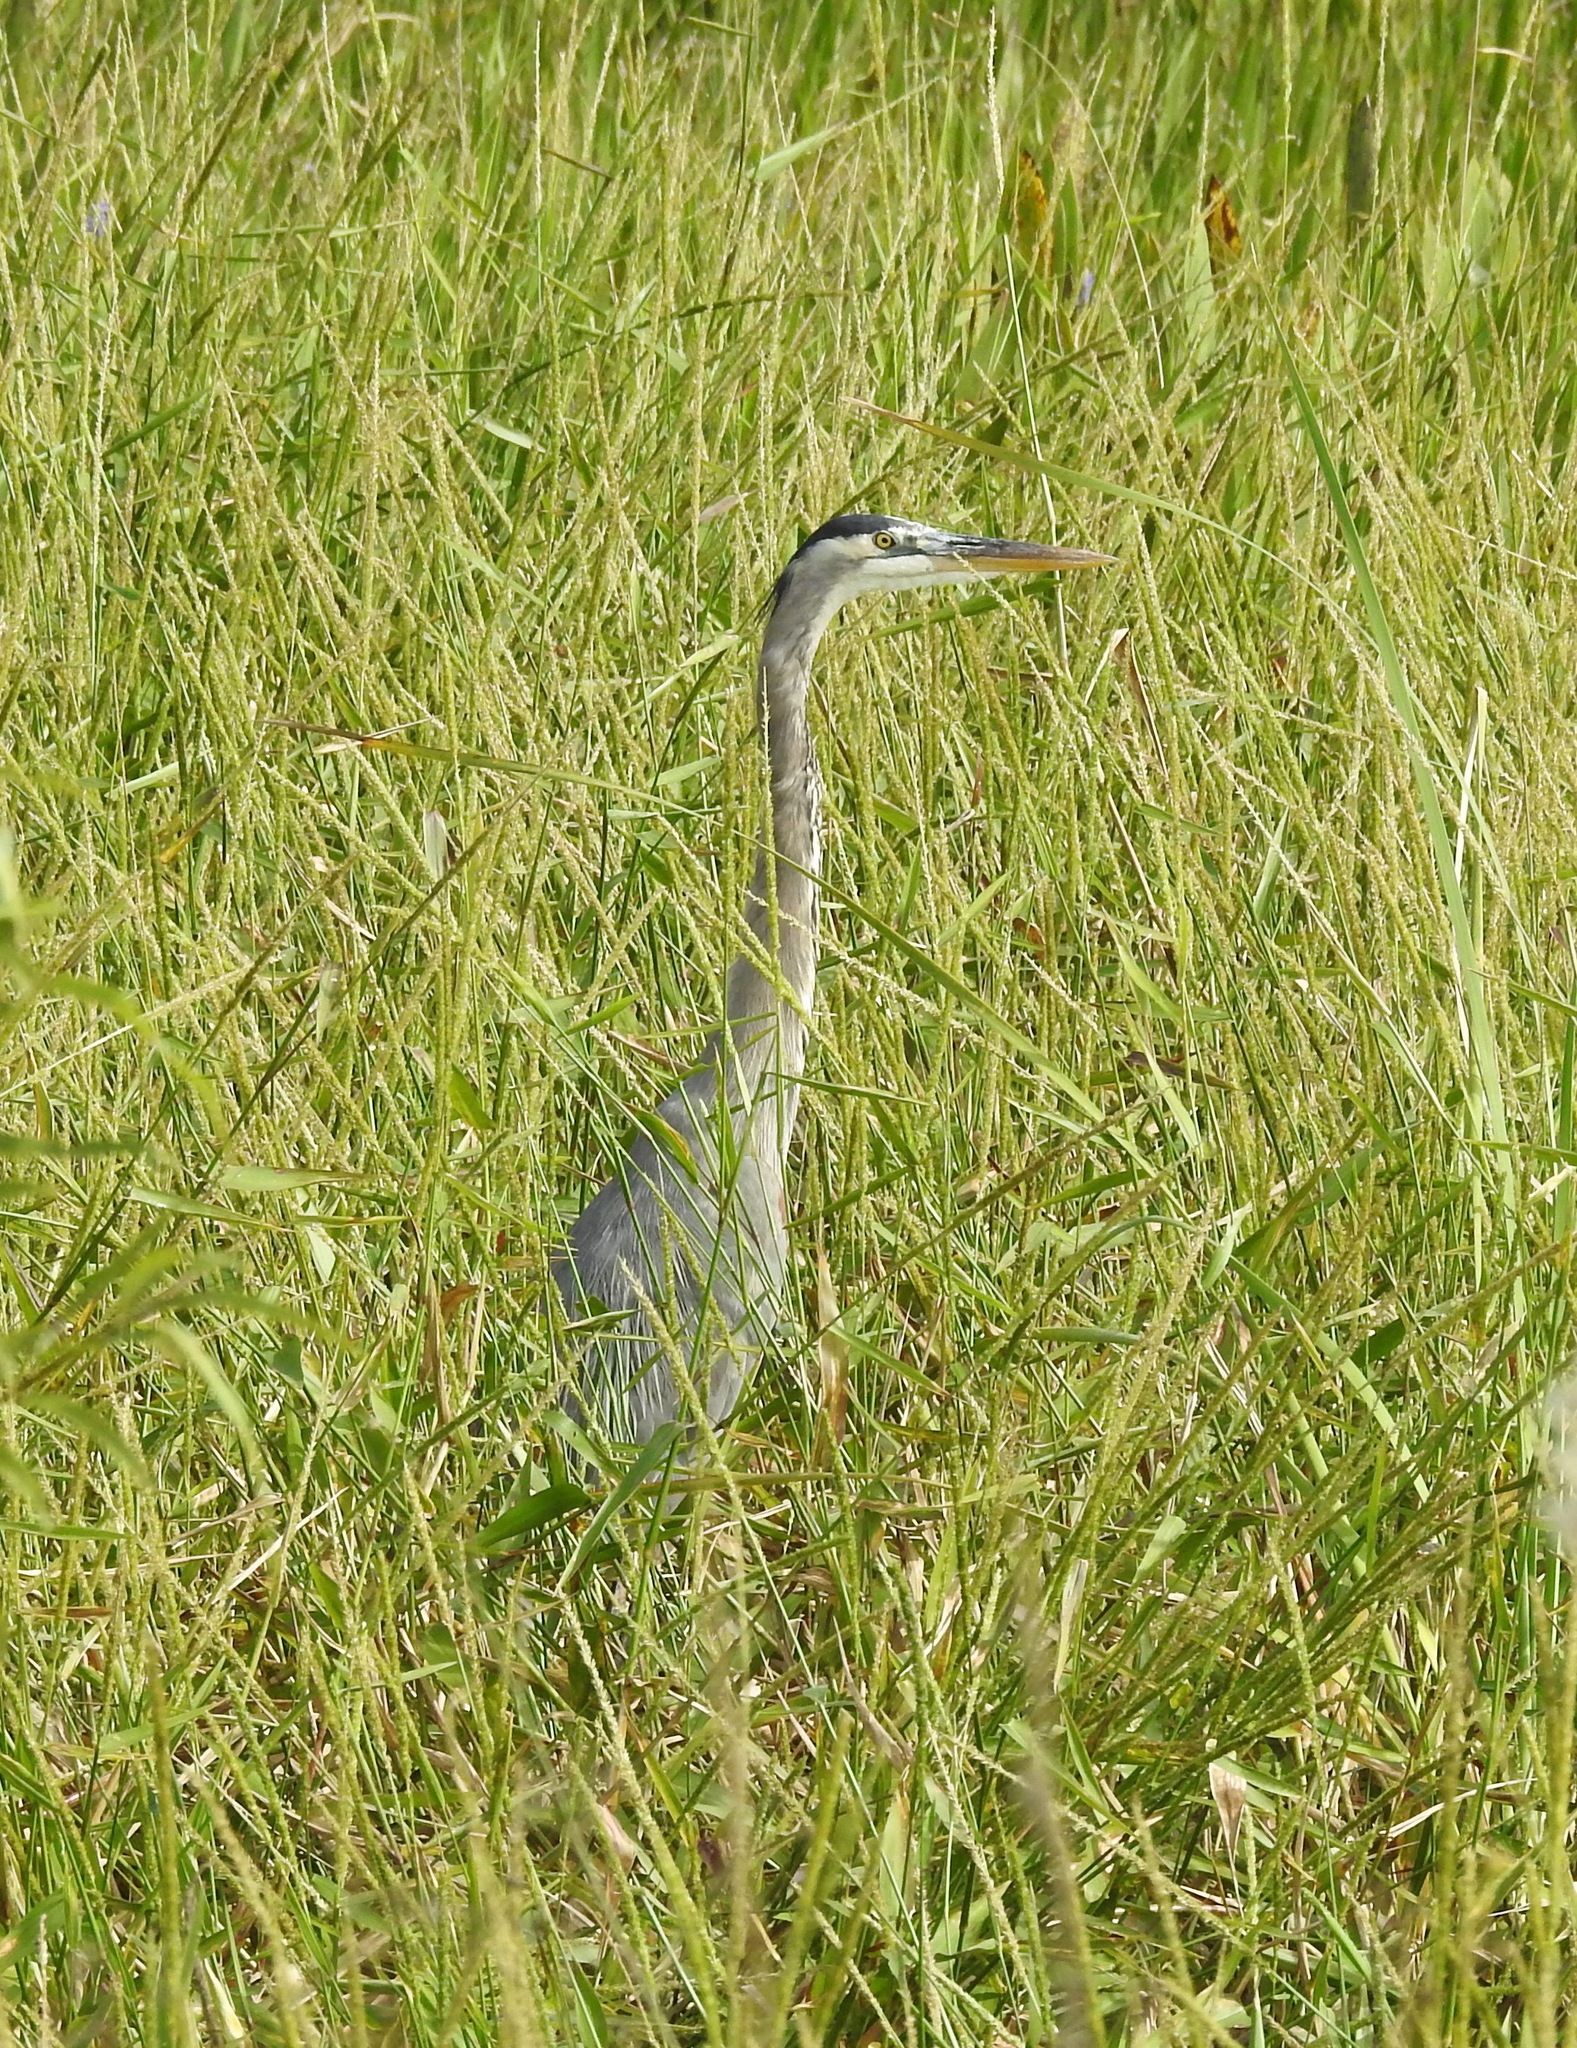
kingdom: Animalia
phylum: Chordata
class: Aves
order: Pelecaniformes
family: Ardeidae
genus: Ardea
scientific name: Ardea herodias
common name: Great blue heron
